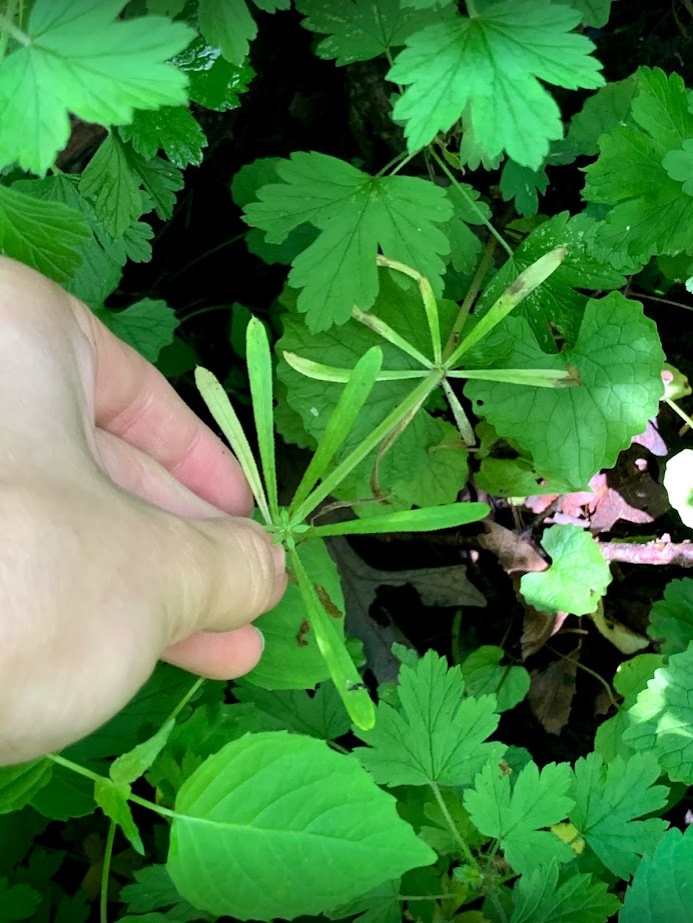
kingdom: Plantae
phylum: Tracheophyta
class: Magnoliopsida
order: Gentianales
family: Rubiaceae
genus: Galium
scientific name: Galium aparine
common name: Cleavers
